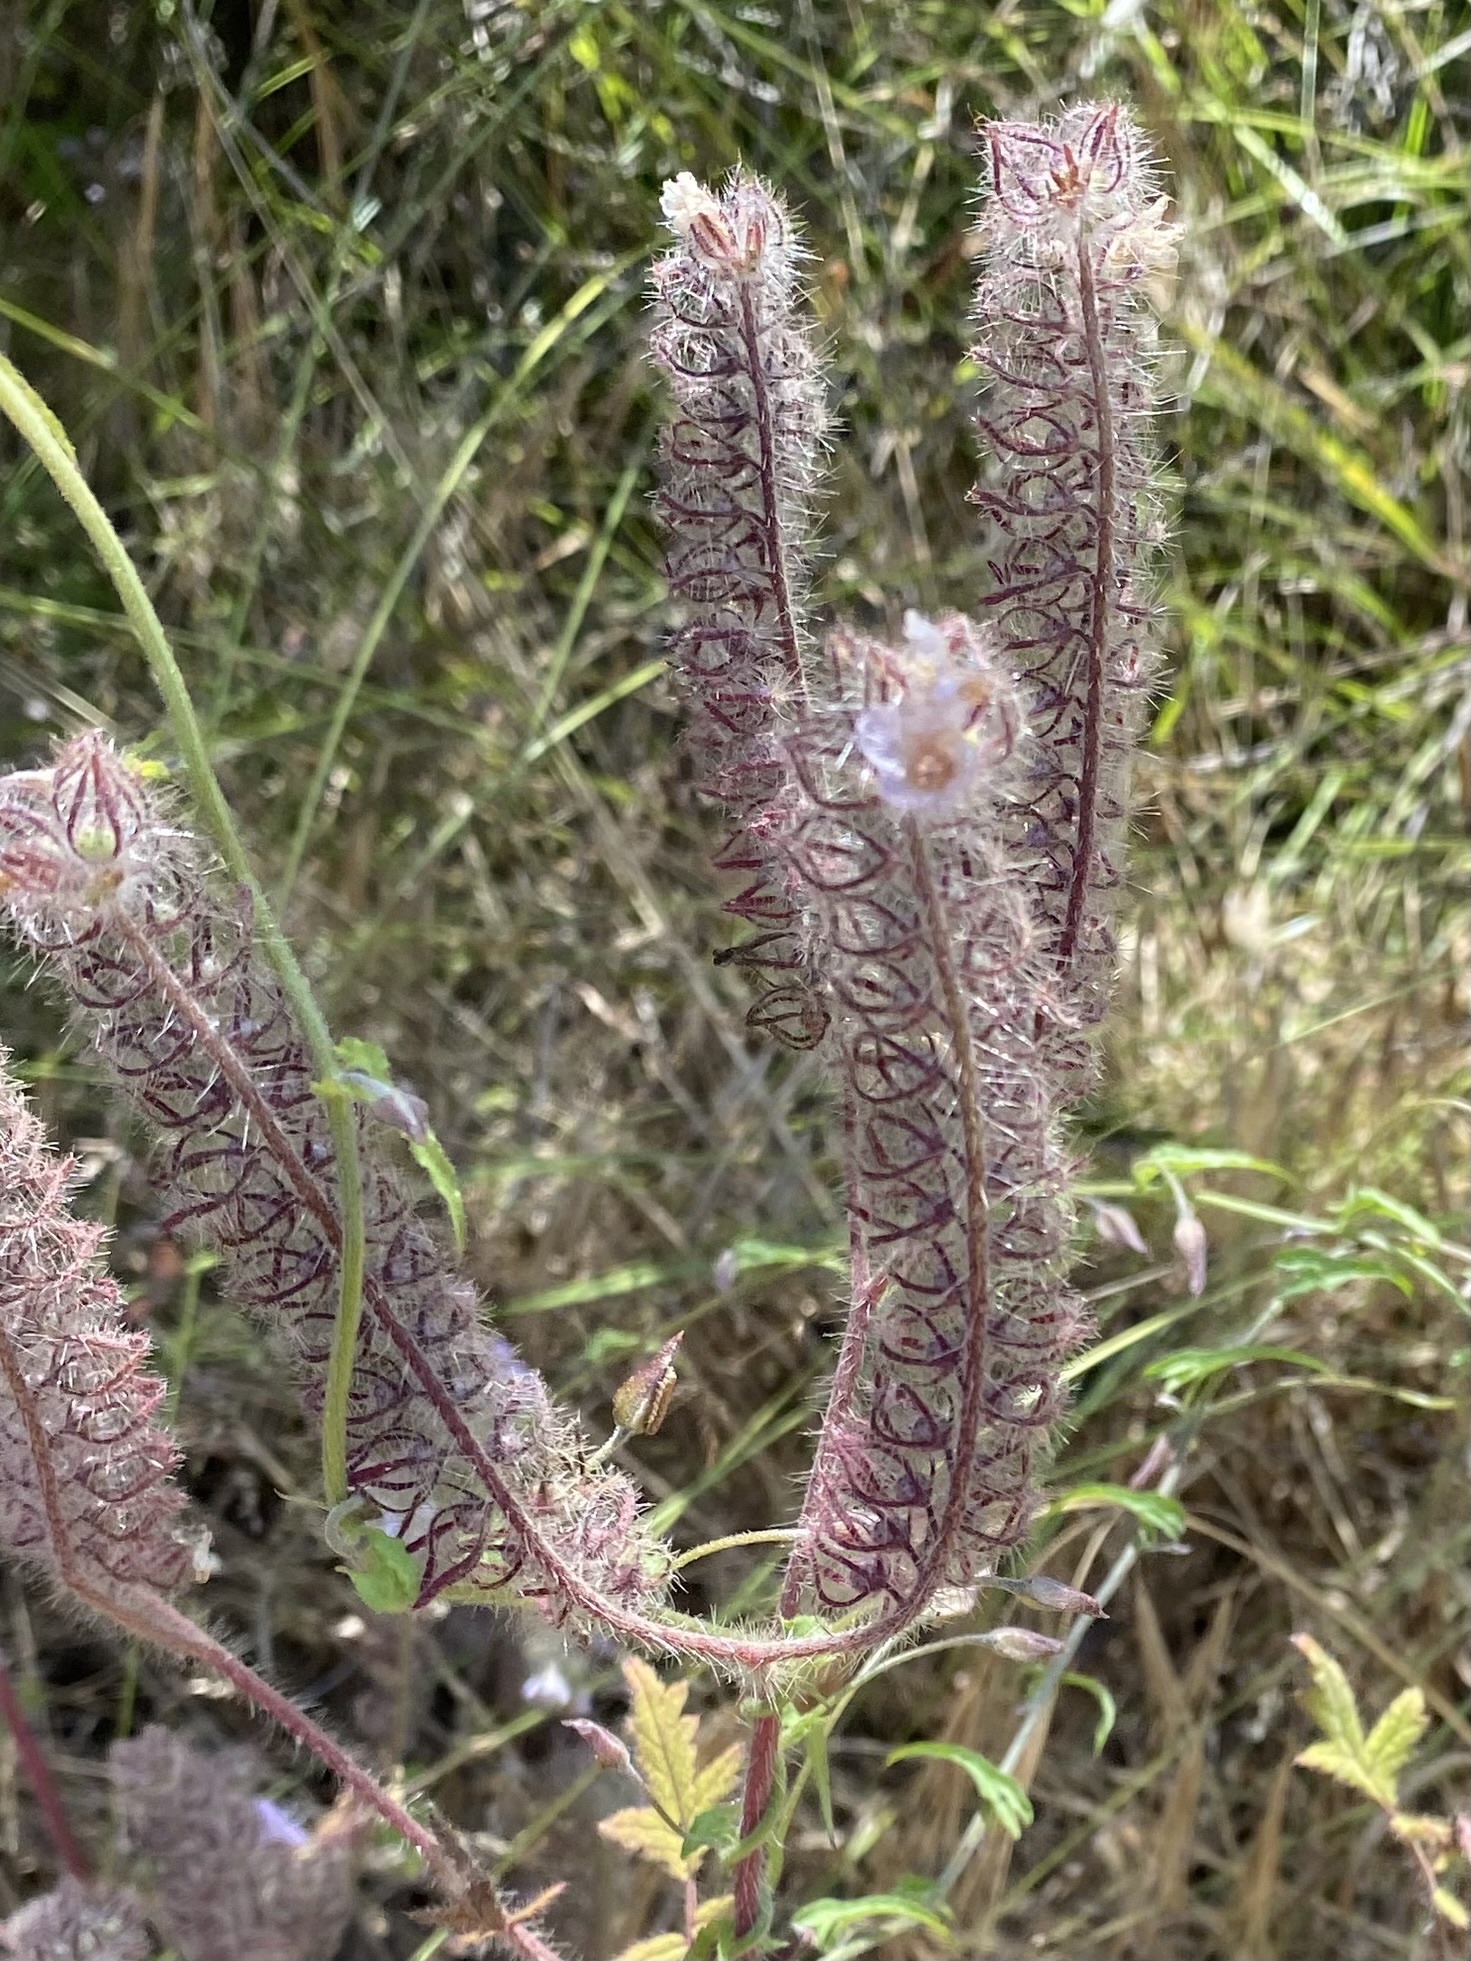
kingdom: Plantae
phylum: Tracheophyta
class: Magnoliopsida
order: Boraginales
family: Hydrophyllaceae
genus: Phacelia
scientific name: Phacelia cicutaria
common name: Caterpillar phacelia
